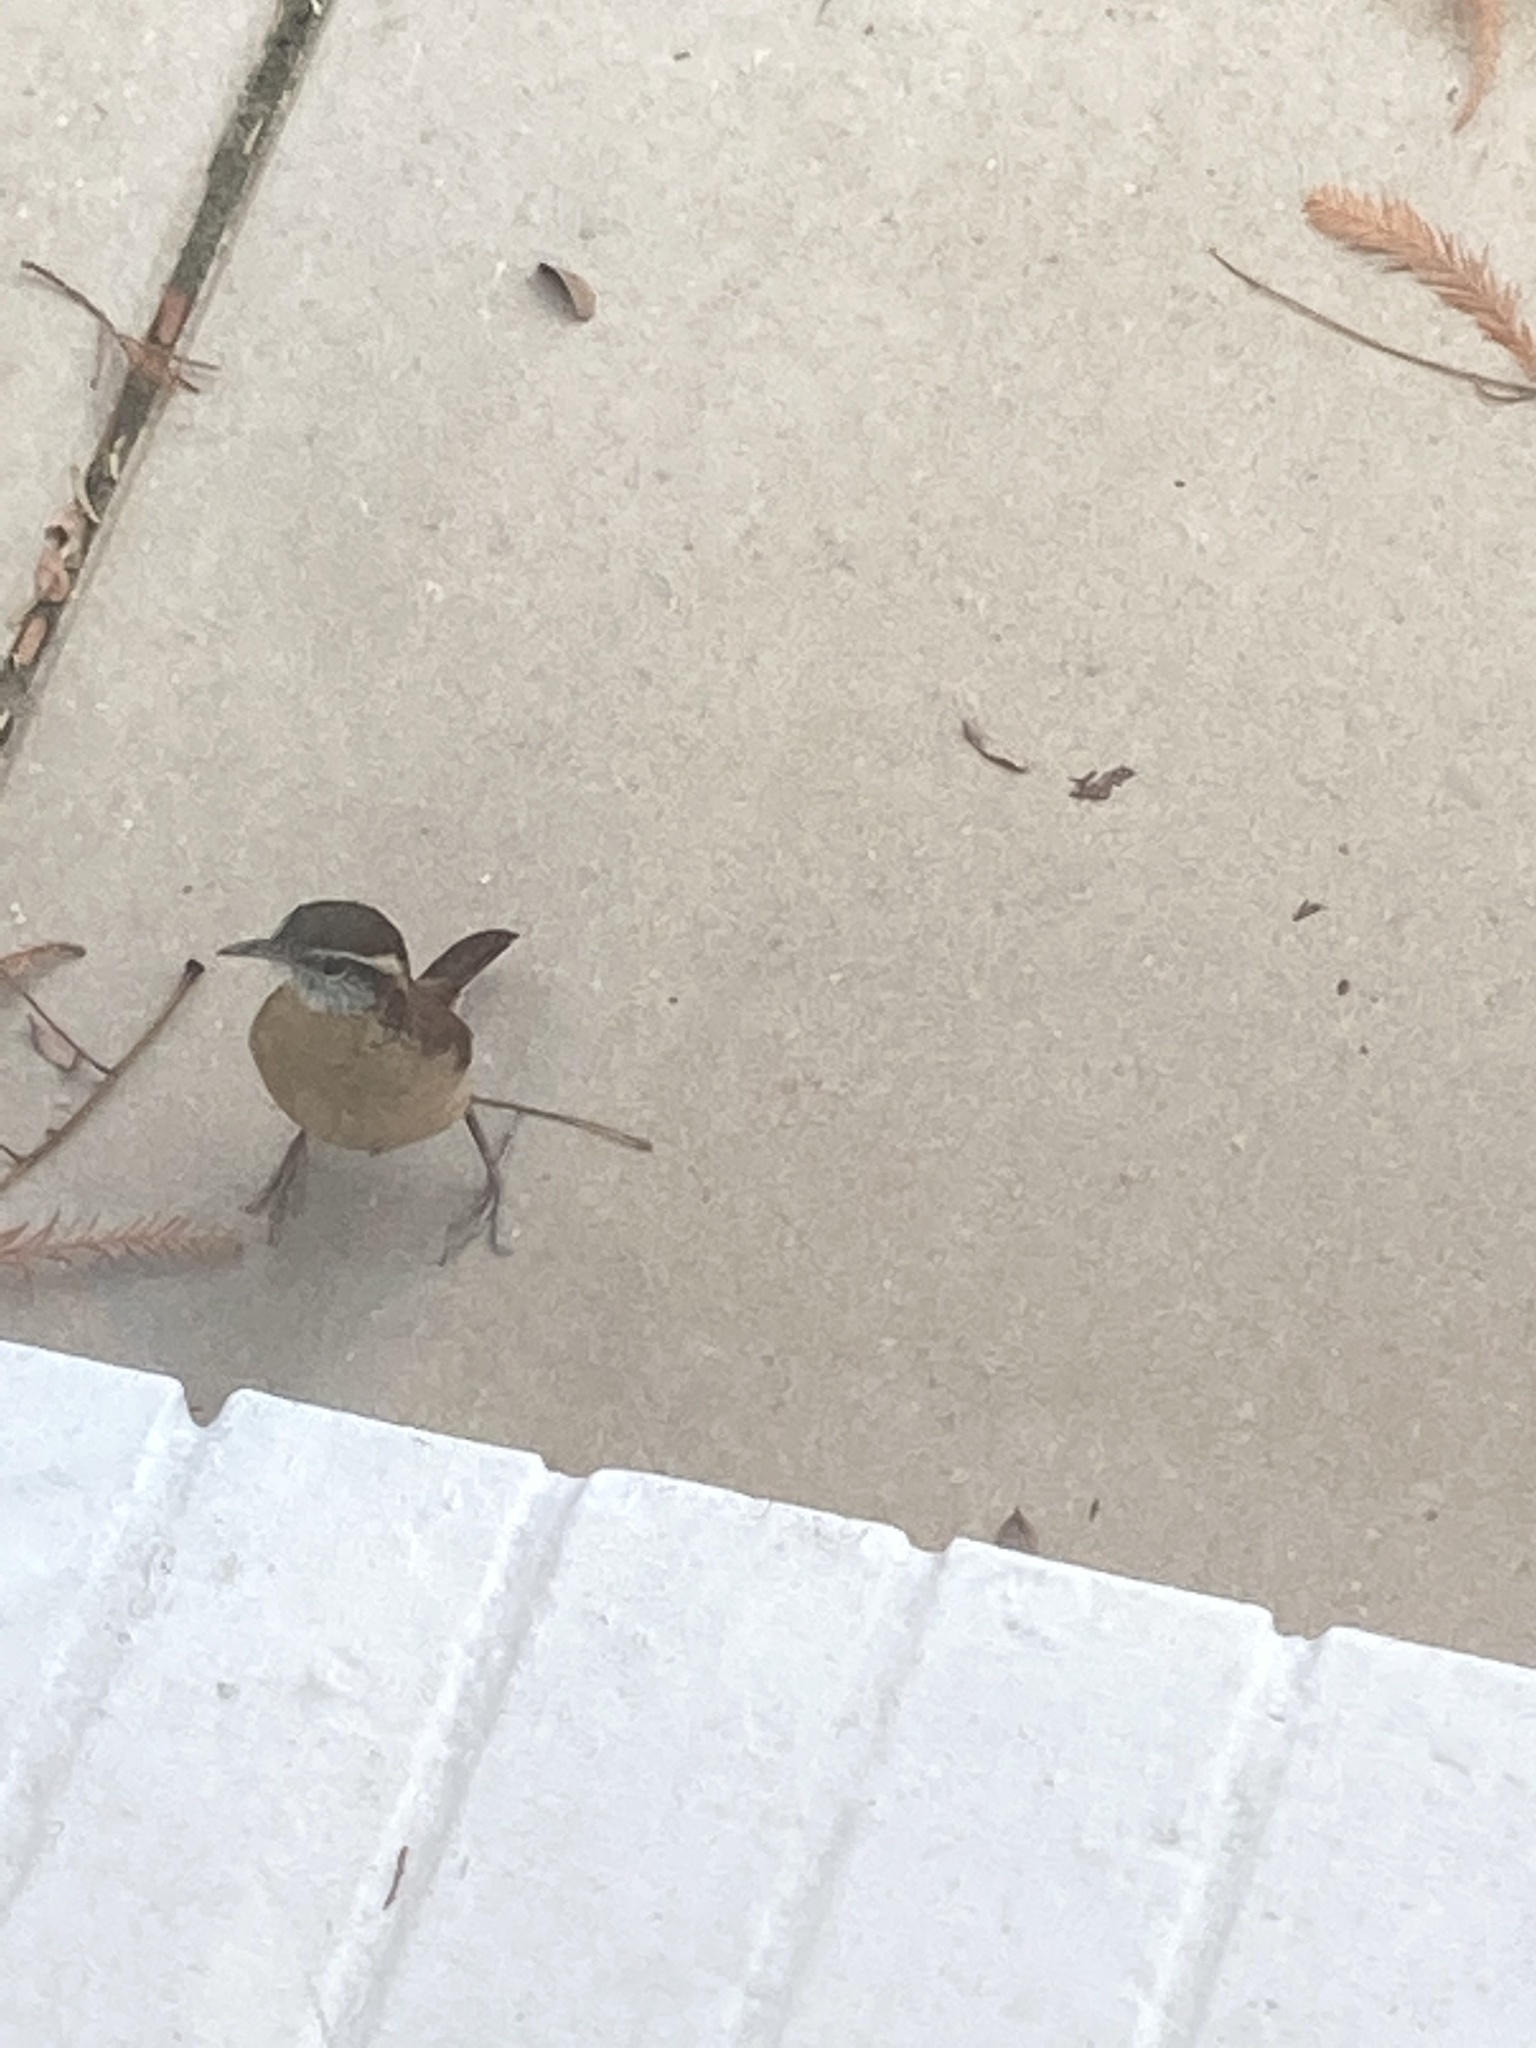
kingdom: Animalia
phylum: Chordata
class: Aves
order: Passeriformes
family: Troglodytidae
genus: Thryothorus
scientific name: Thryothorus ludovicianus
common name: Carolina wren
